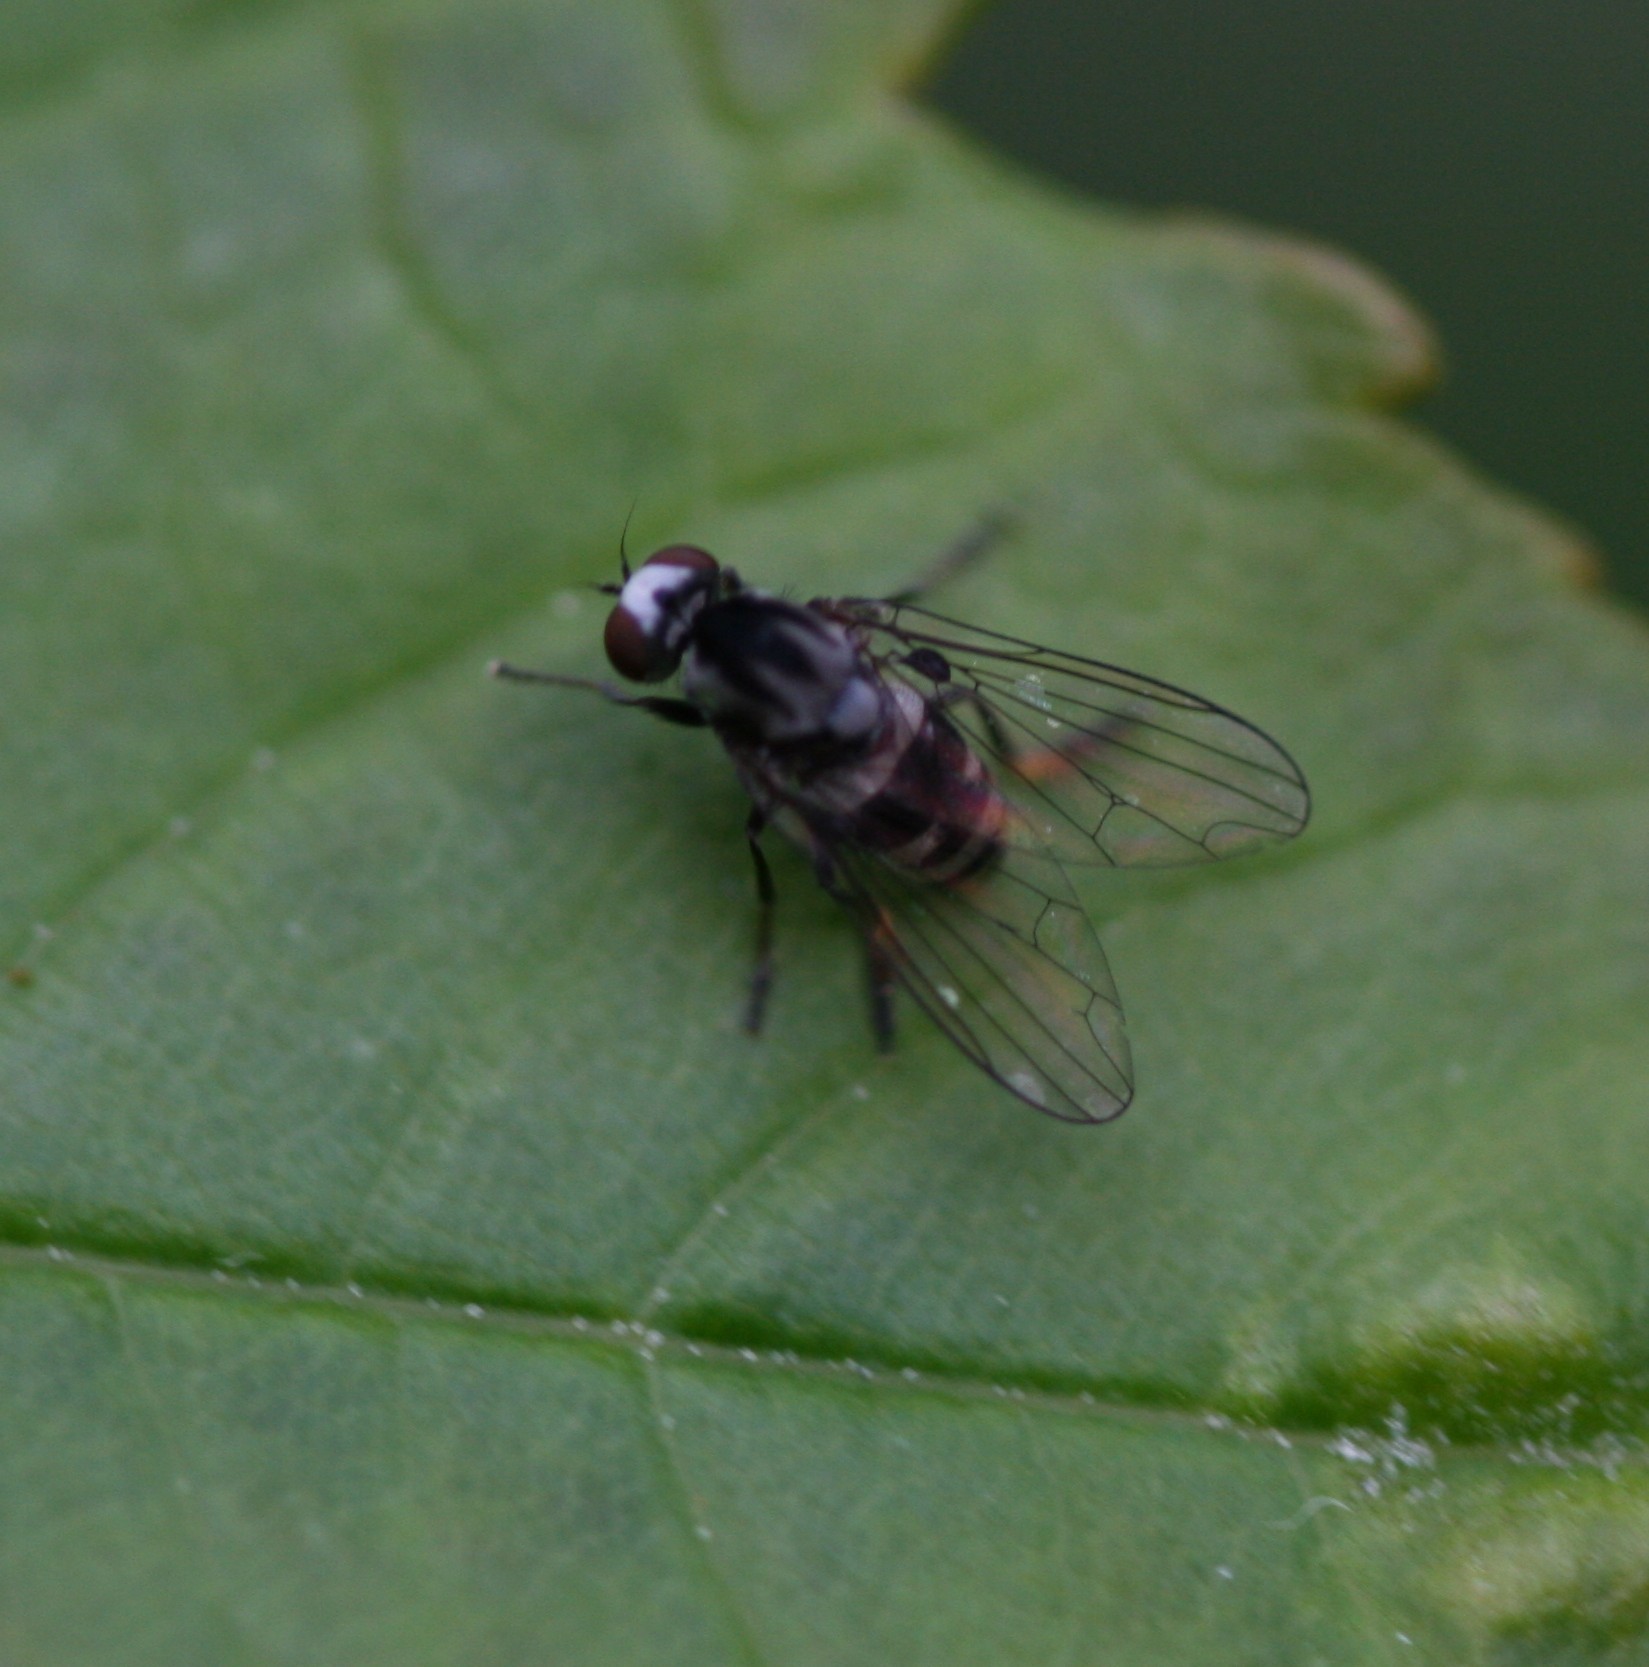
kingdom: Animalia
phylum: Arthropoda
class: Insecta
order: Diptera
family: Platypezidae
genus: Polyporivora
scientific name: Polyporivora ornata
